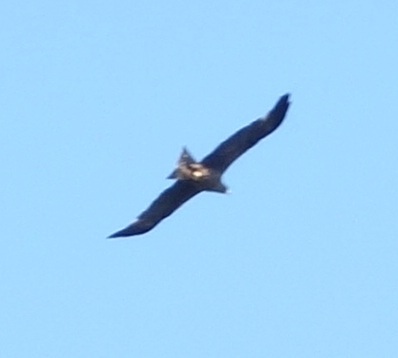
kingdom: Animalia
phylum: Chordata
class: Aves
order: Accipitriformes
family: Accipitridae
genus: Milvus
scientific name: Milvus migrans
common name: Black kite
